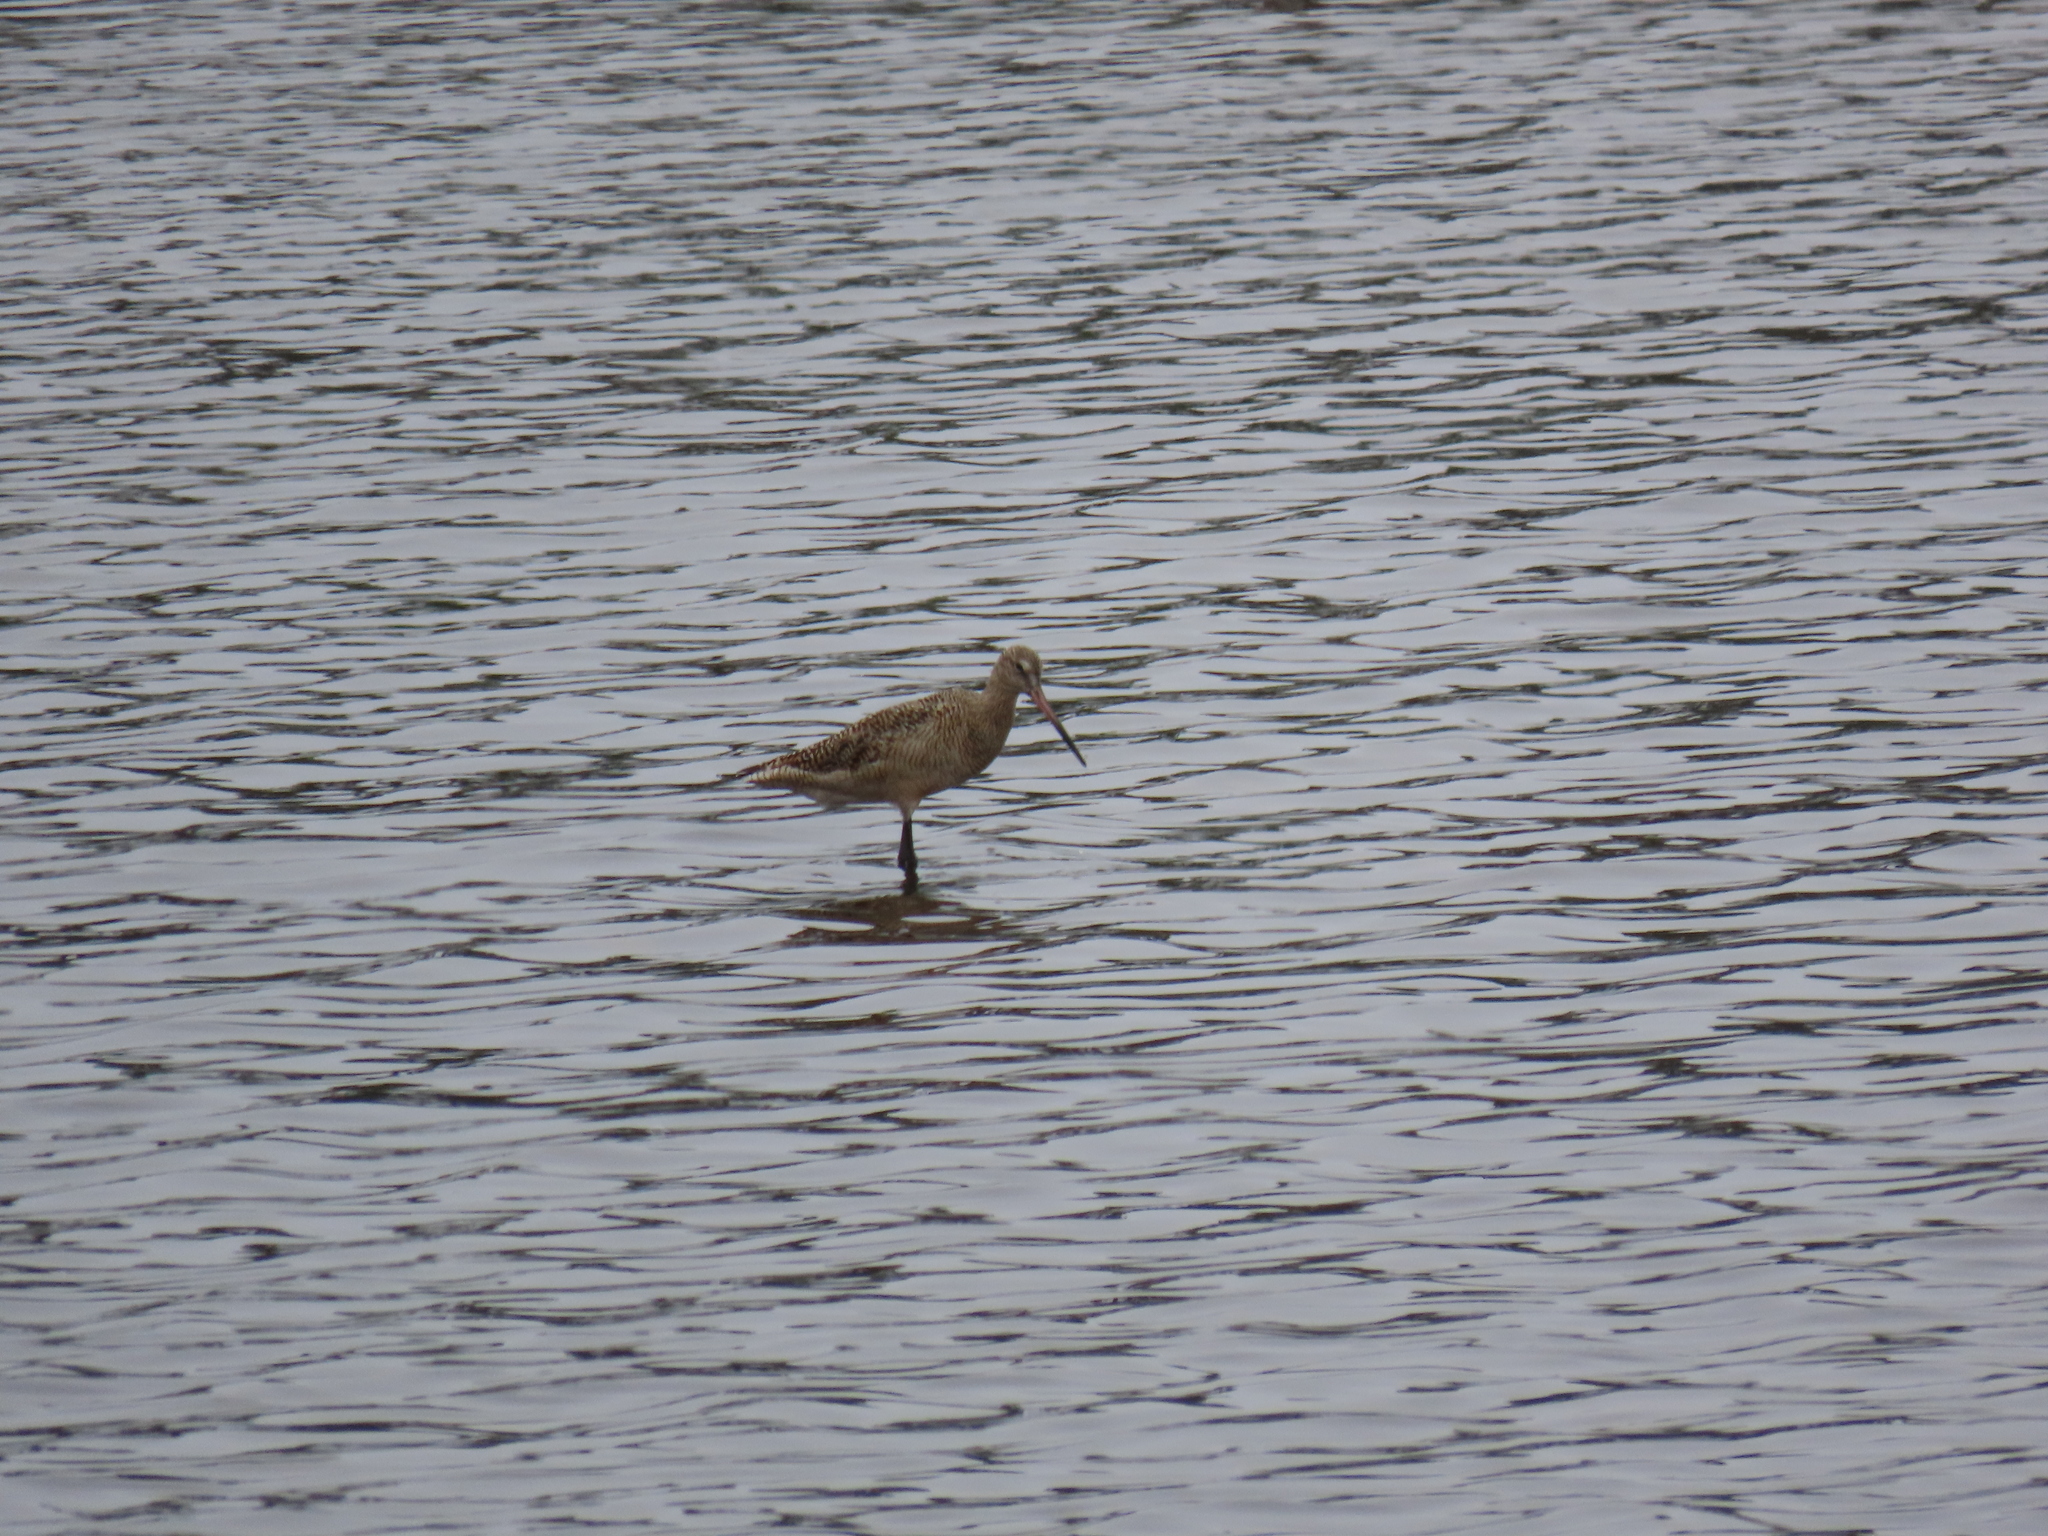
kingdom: Animalia
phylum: Chordata
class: Aves
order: Charadriiformes
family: Scolopacidae
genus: Limosa
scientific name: Limosa fedoa
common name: Marbled godwit
